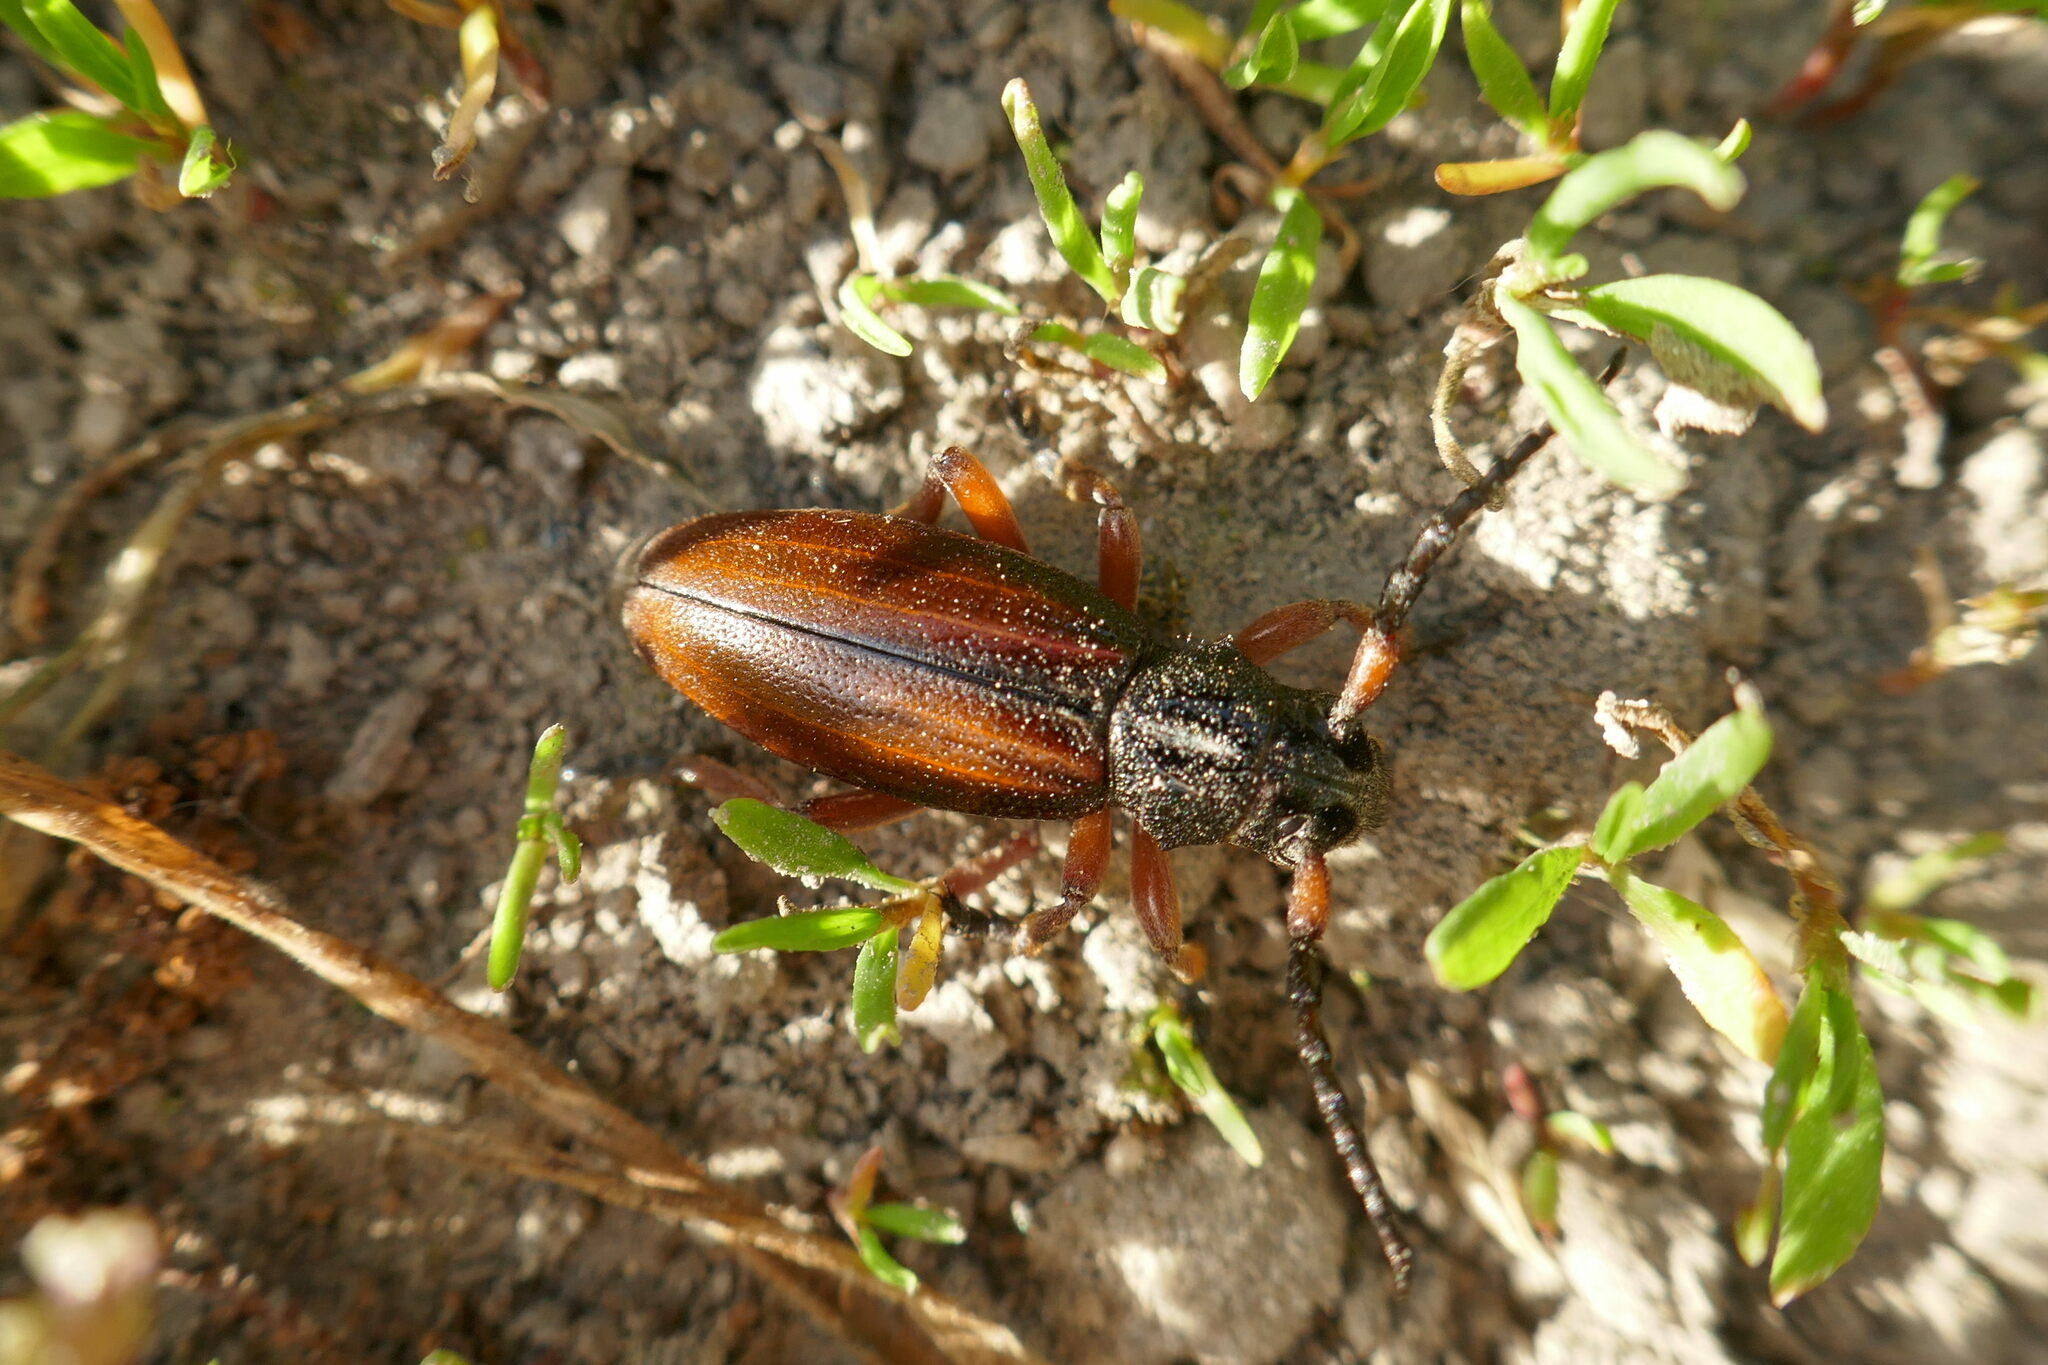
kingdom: Animalia
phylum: Arthropoda
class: Insecta
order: Coleoptera
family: Cerambycidae
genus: Dorcadion
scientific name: Dorcadion fulvum
